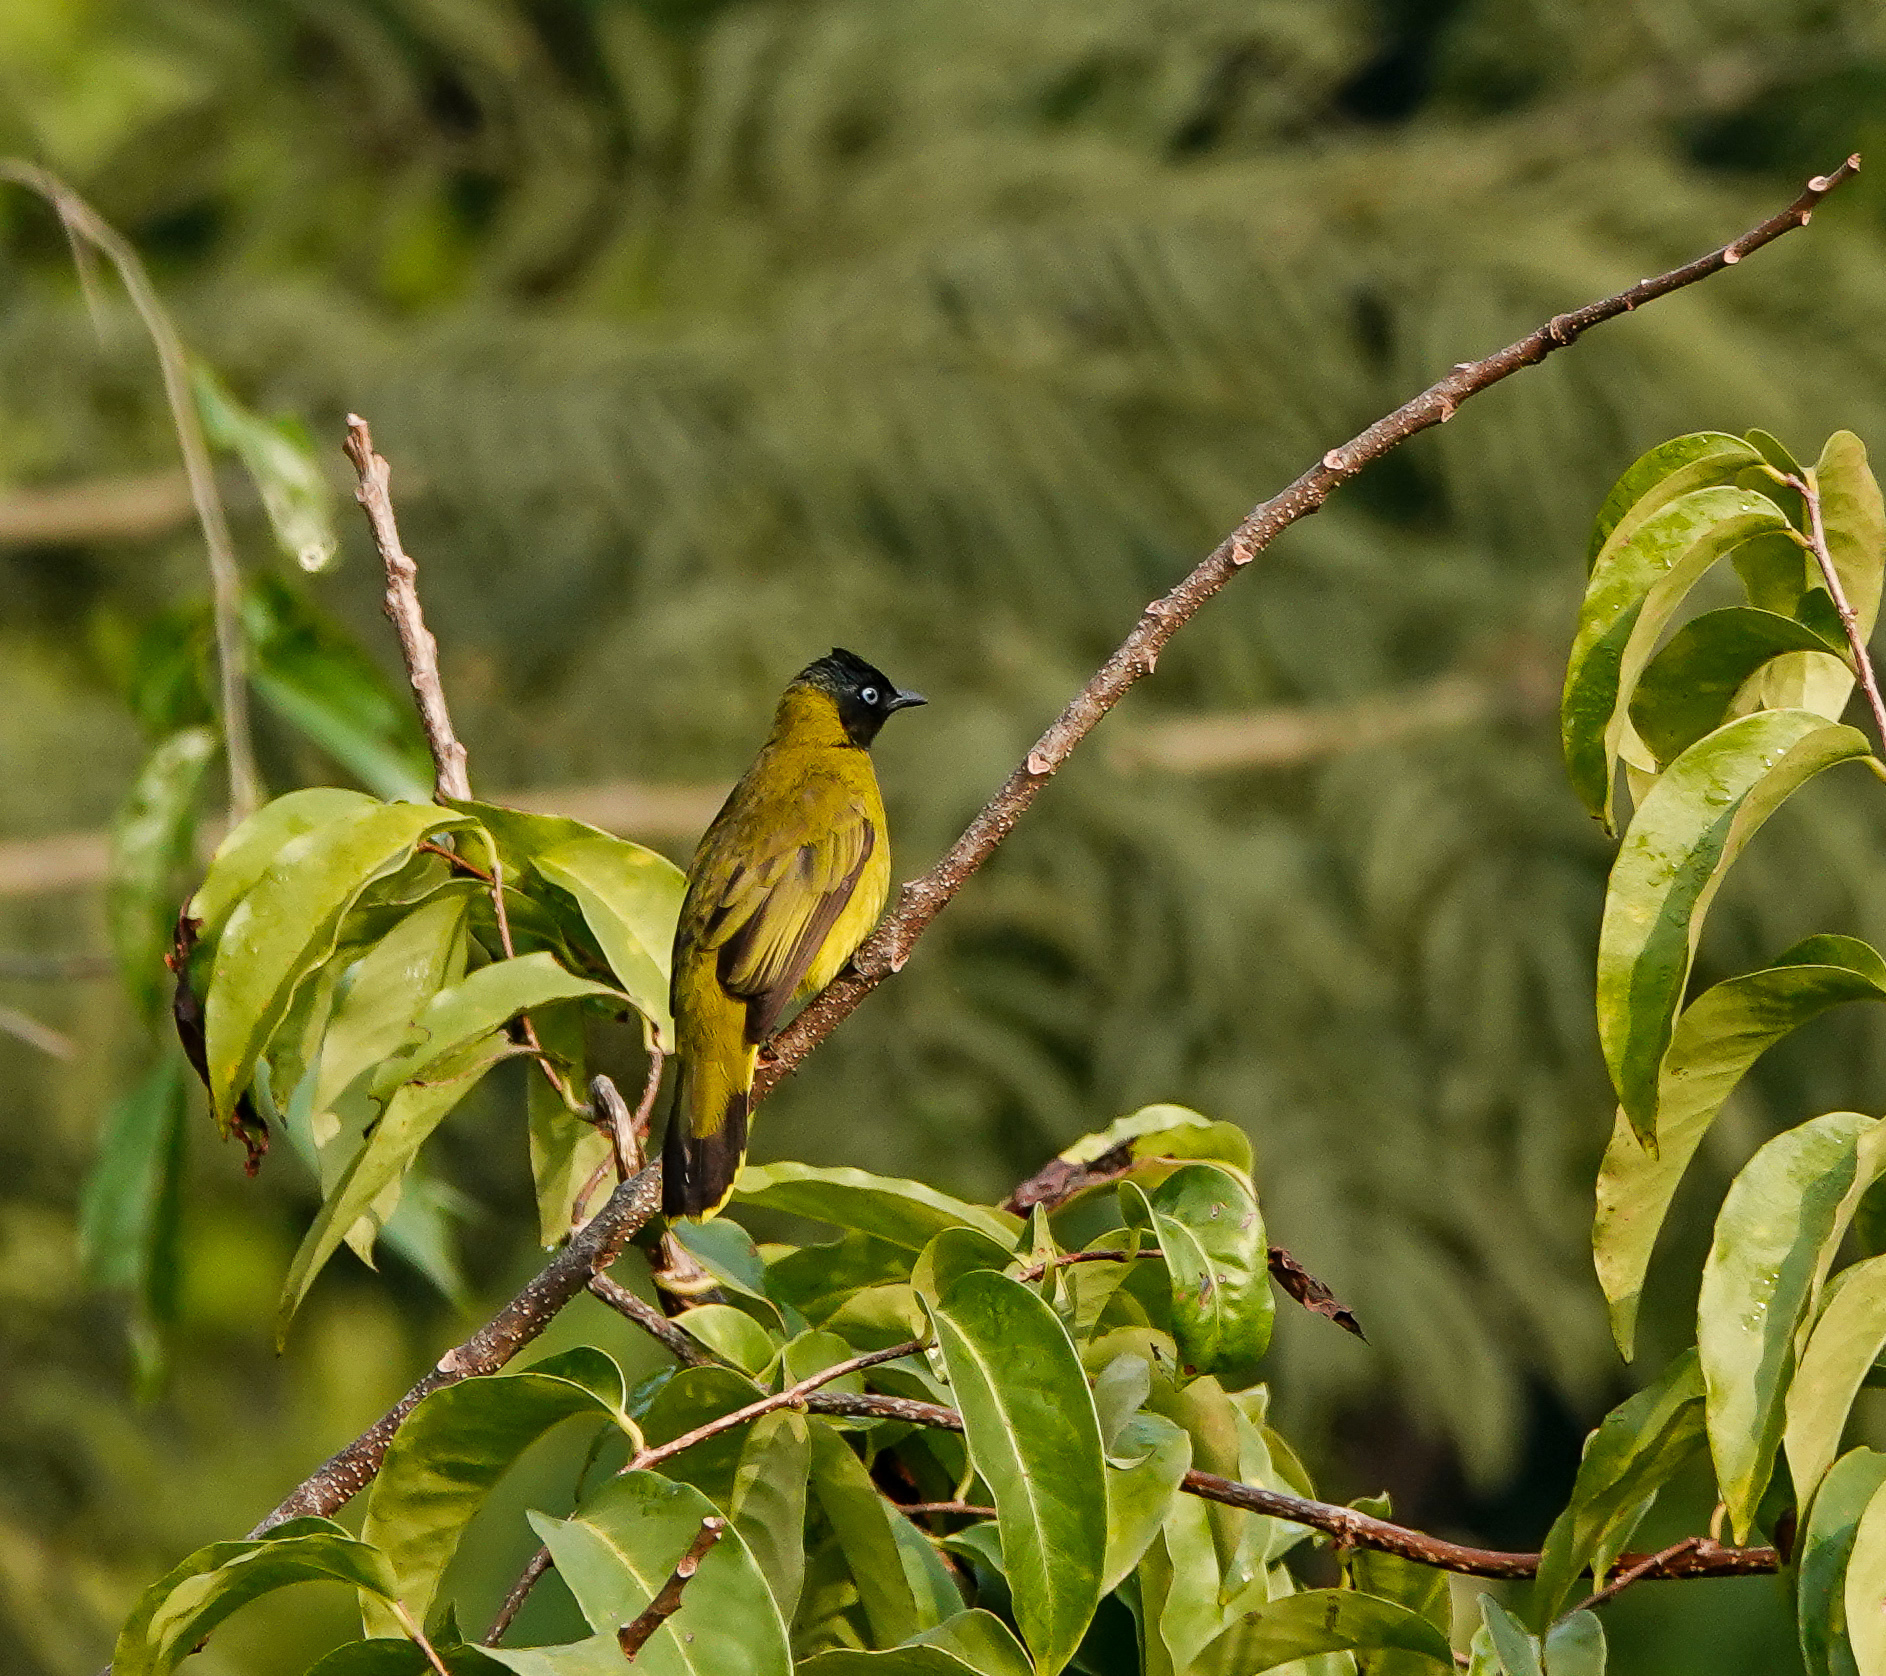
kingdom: Animalia
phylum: Chordata
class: Aves
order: Passeriformes
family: Pycnonotidae
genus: Microtarsus
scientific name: Microtarsus
